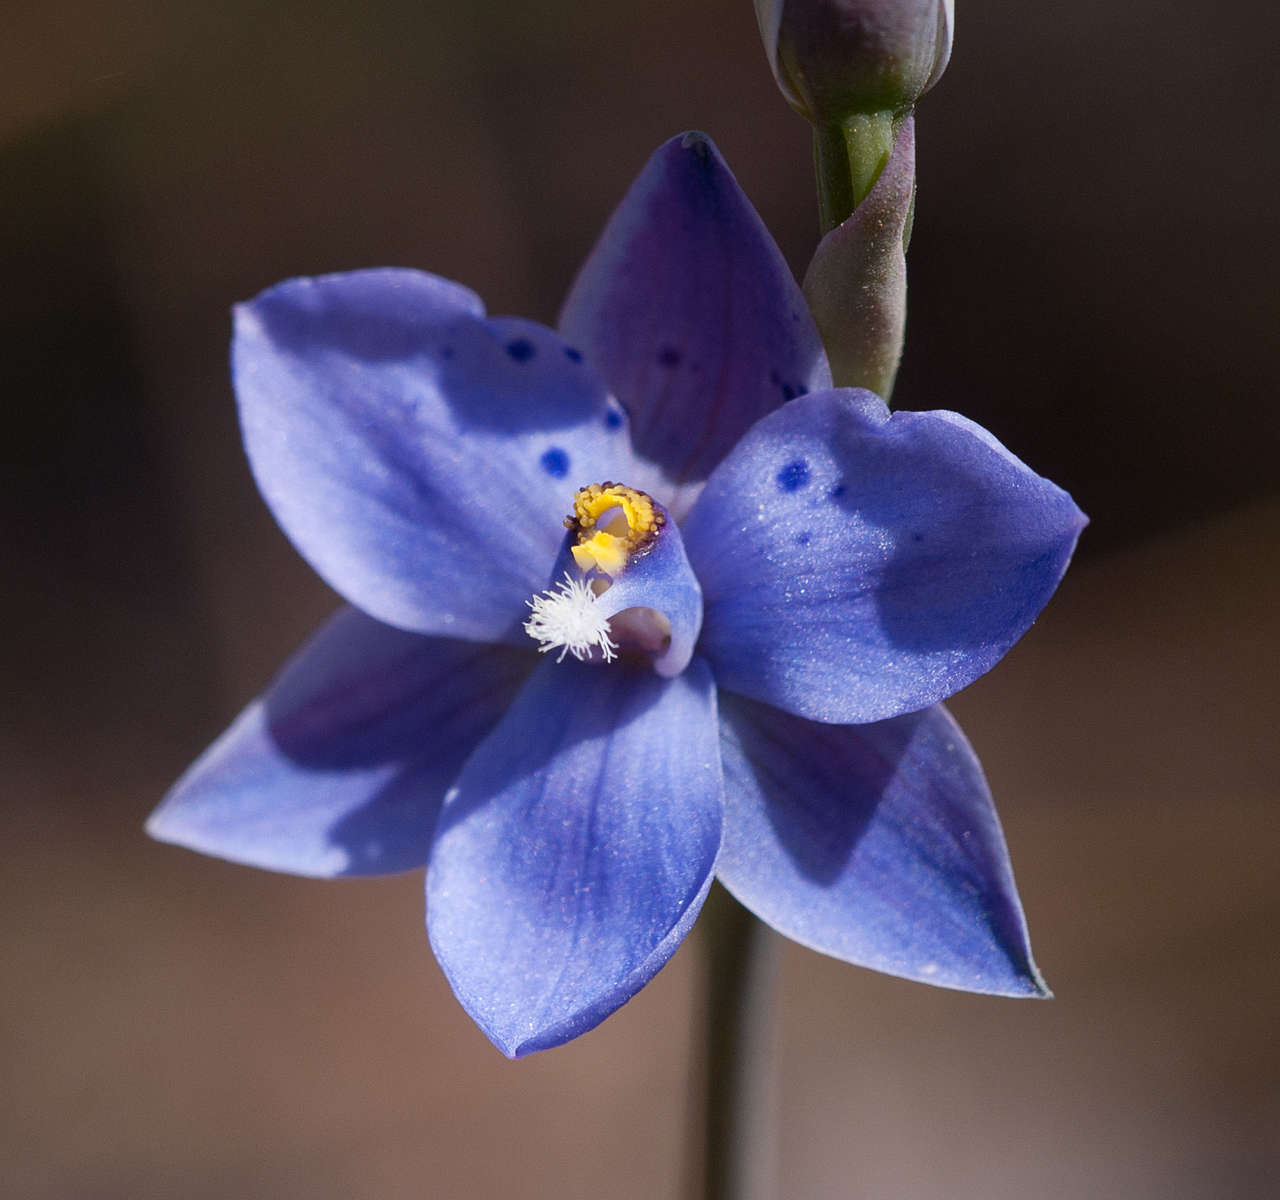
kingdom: Plantae
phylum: Tracheophyta
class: Liliopsida
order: Asparagales
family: Orchidaceae
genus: Thelymitra
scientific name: Thelymitra ixioides
